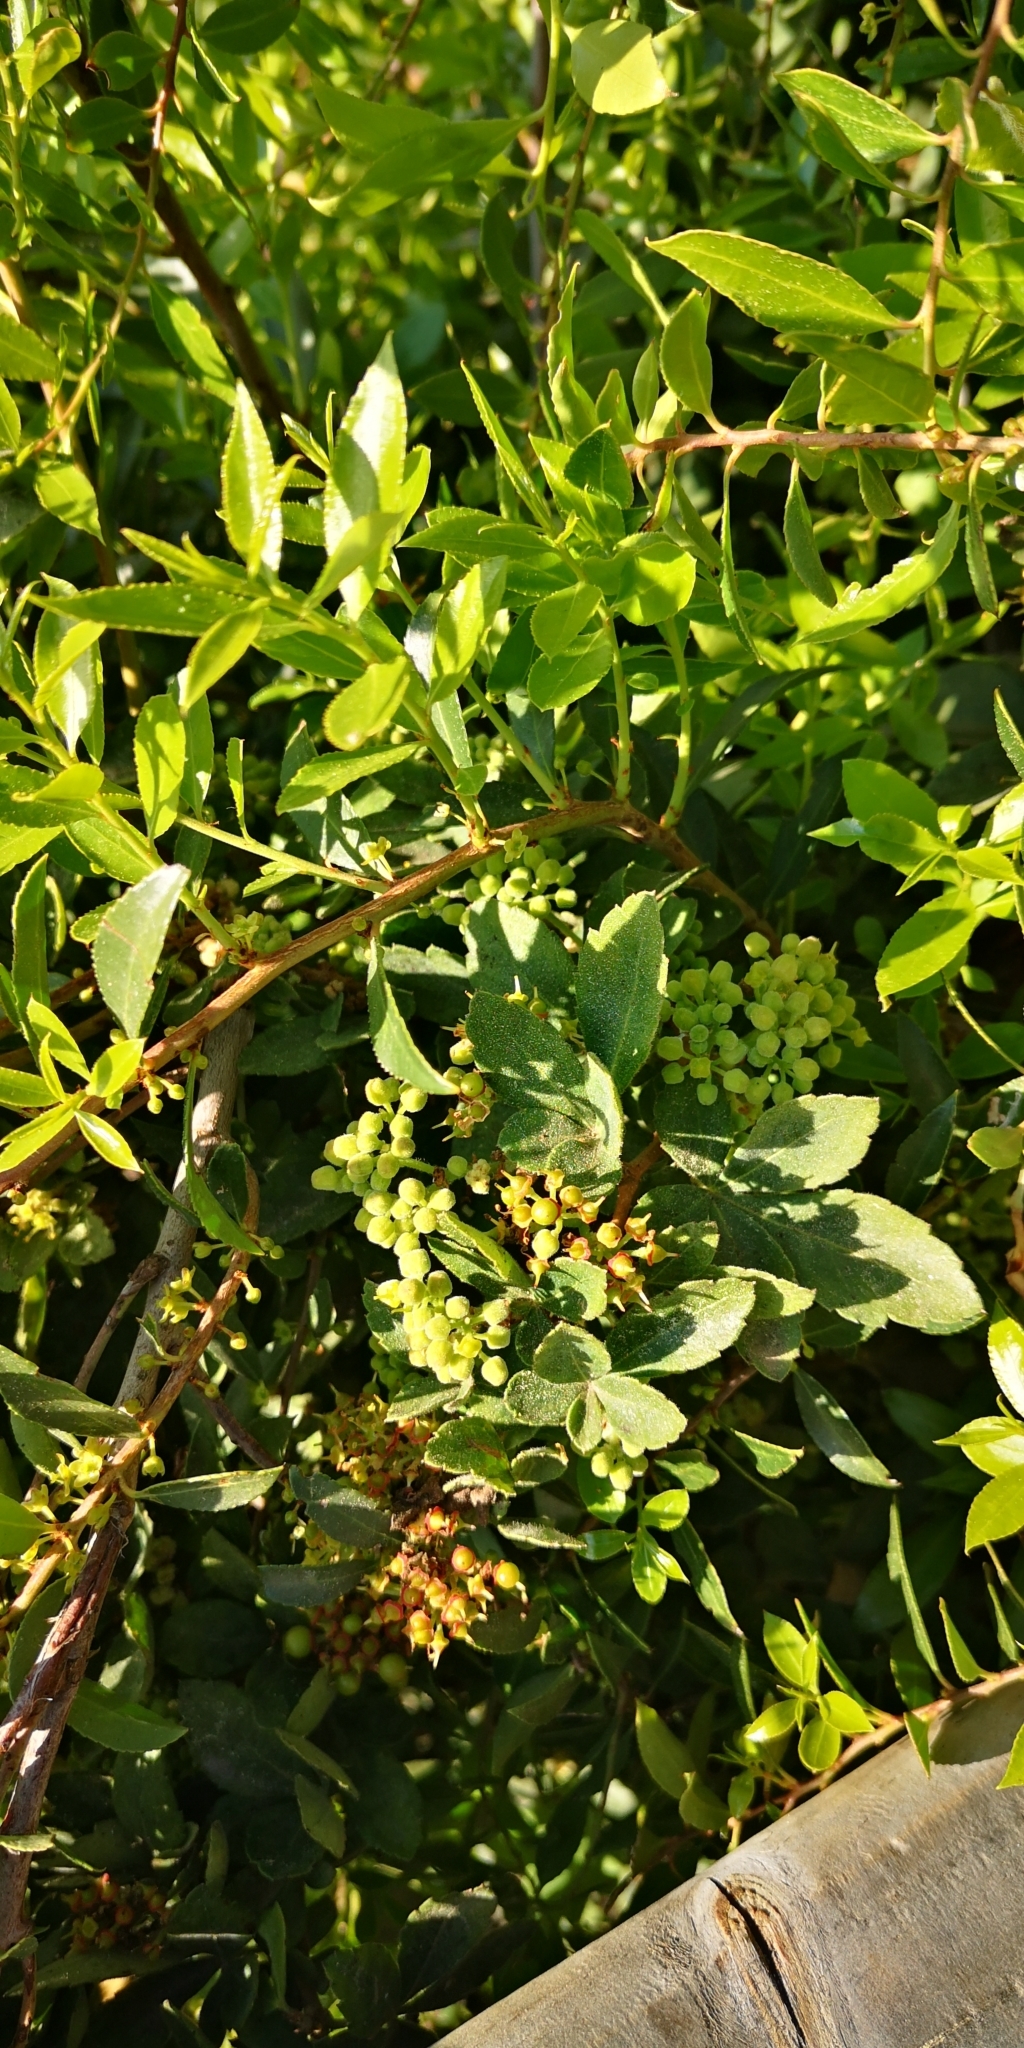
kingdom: Plantae
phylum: Tracheophyta
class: Magnoliopsida
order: Celastrales
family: Celastraceae
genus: Maytenus
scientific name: Maytenus boaria
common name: Mayten
